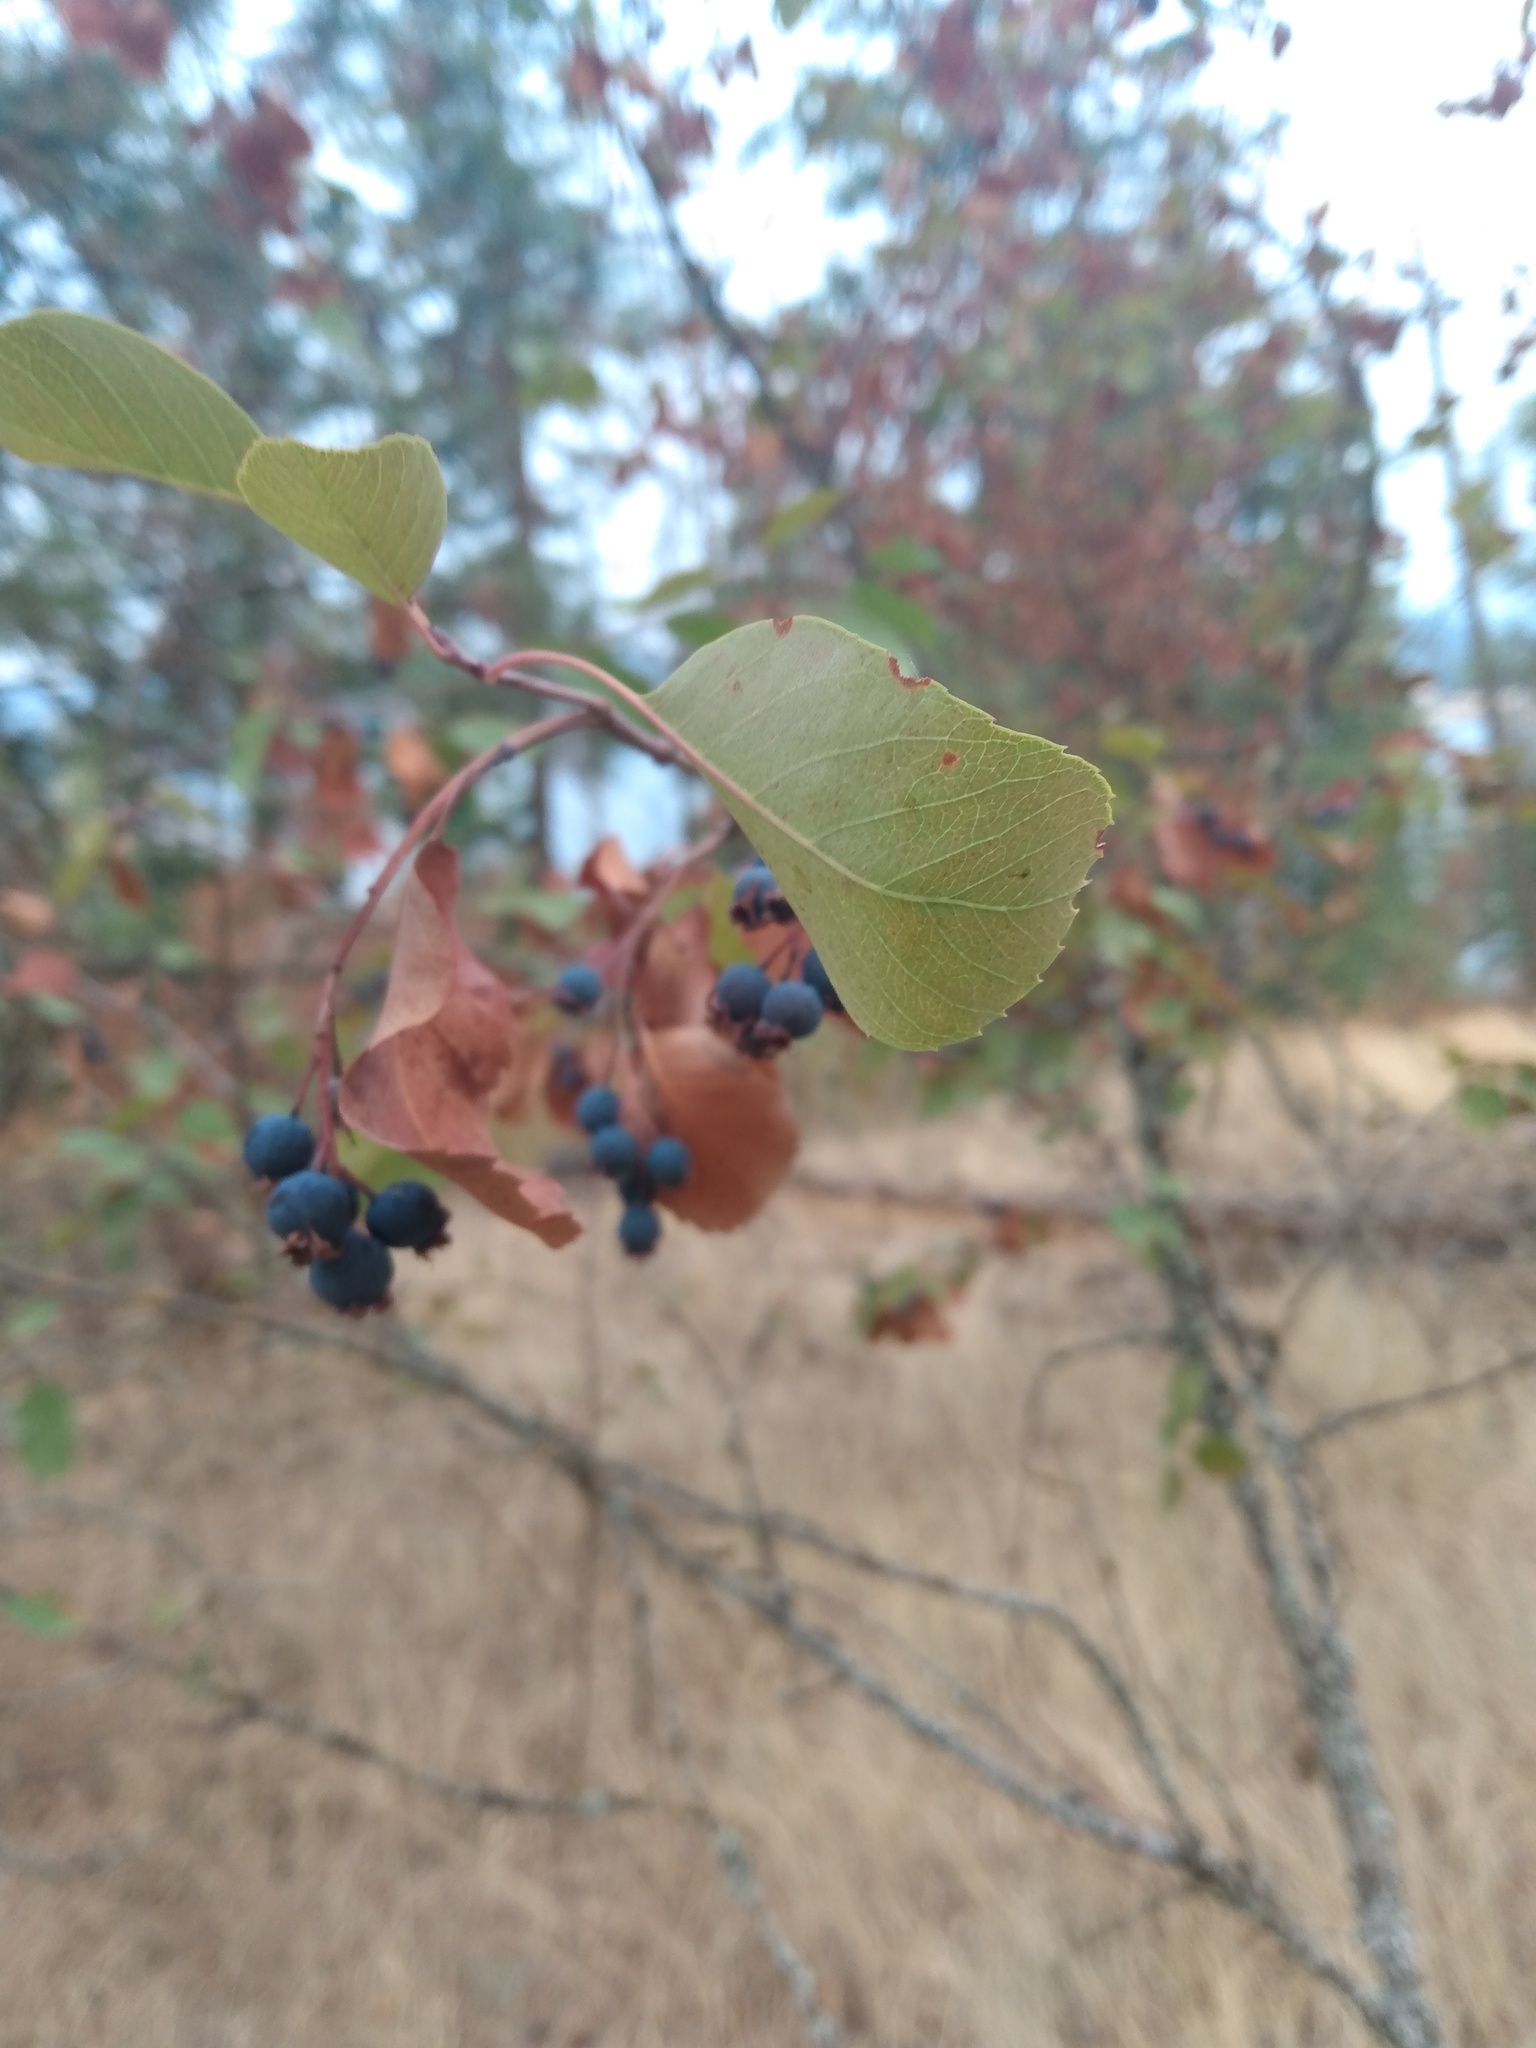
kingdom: Plantae
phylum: Tracheophyta
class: Magnoliopsida
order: Rosales
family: Rosaceae
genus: Amelanchier
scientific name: Amelanchier alnifolia
